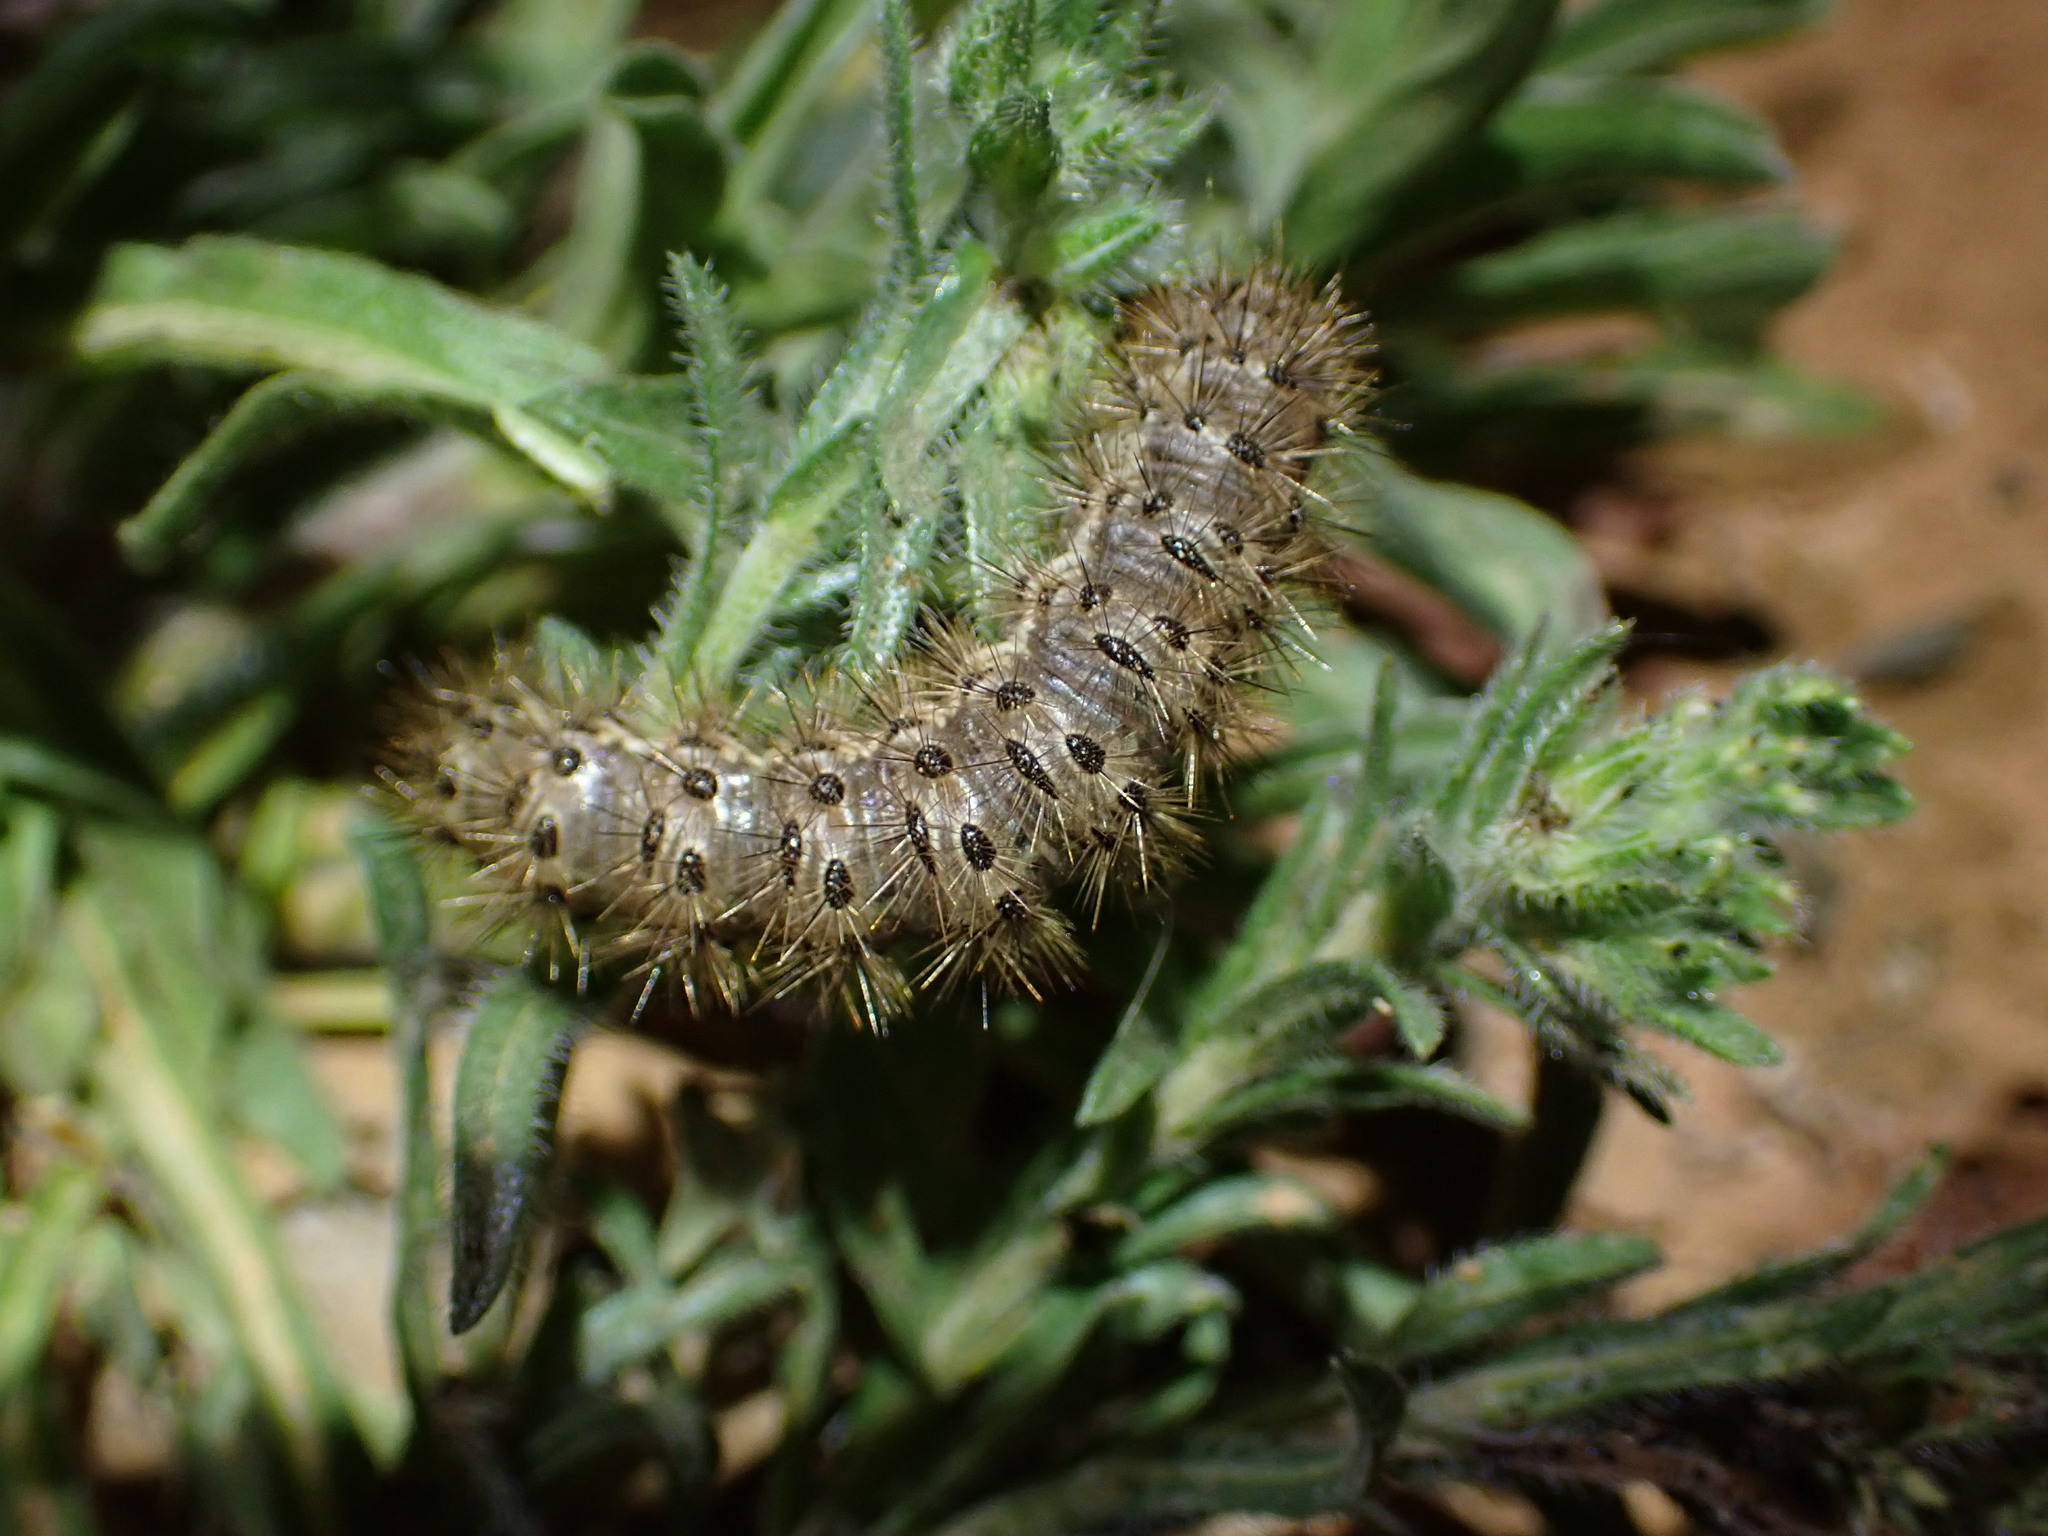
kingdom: Animalia
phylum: Arthropoda
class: Insecta
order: Lepidoptera
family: Erebidae
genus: Cymbalophora
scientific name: Cymbalophora pudica
